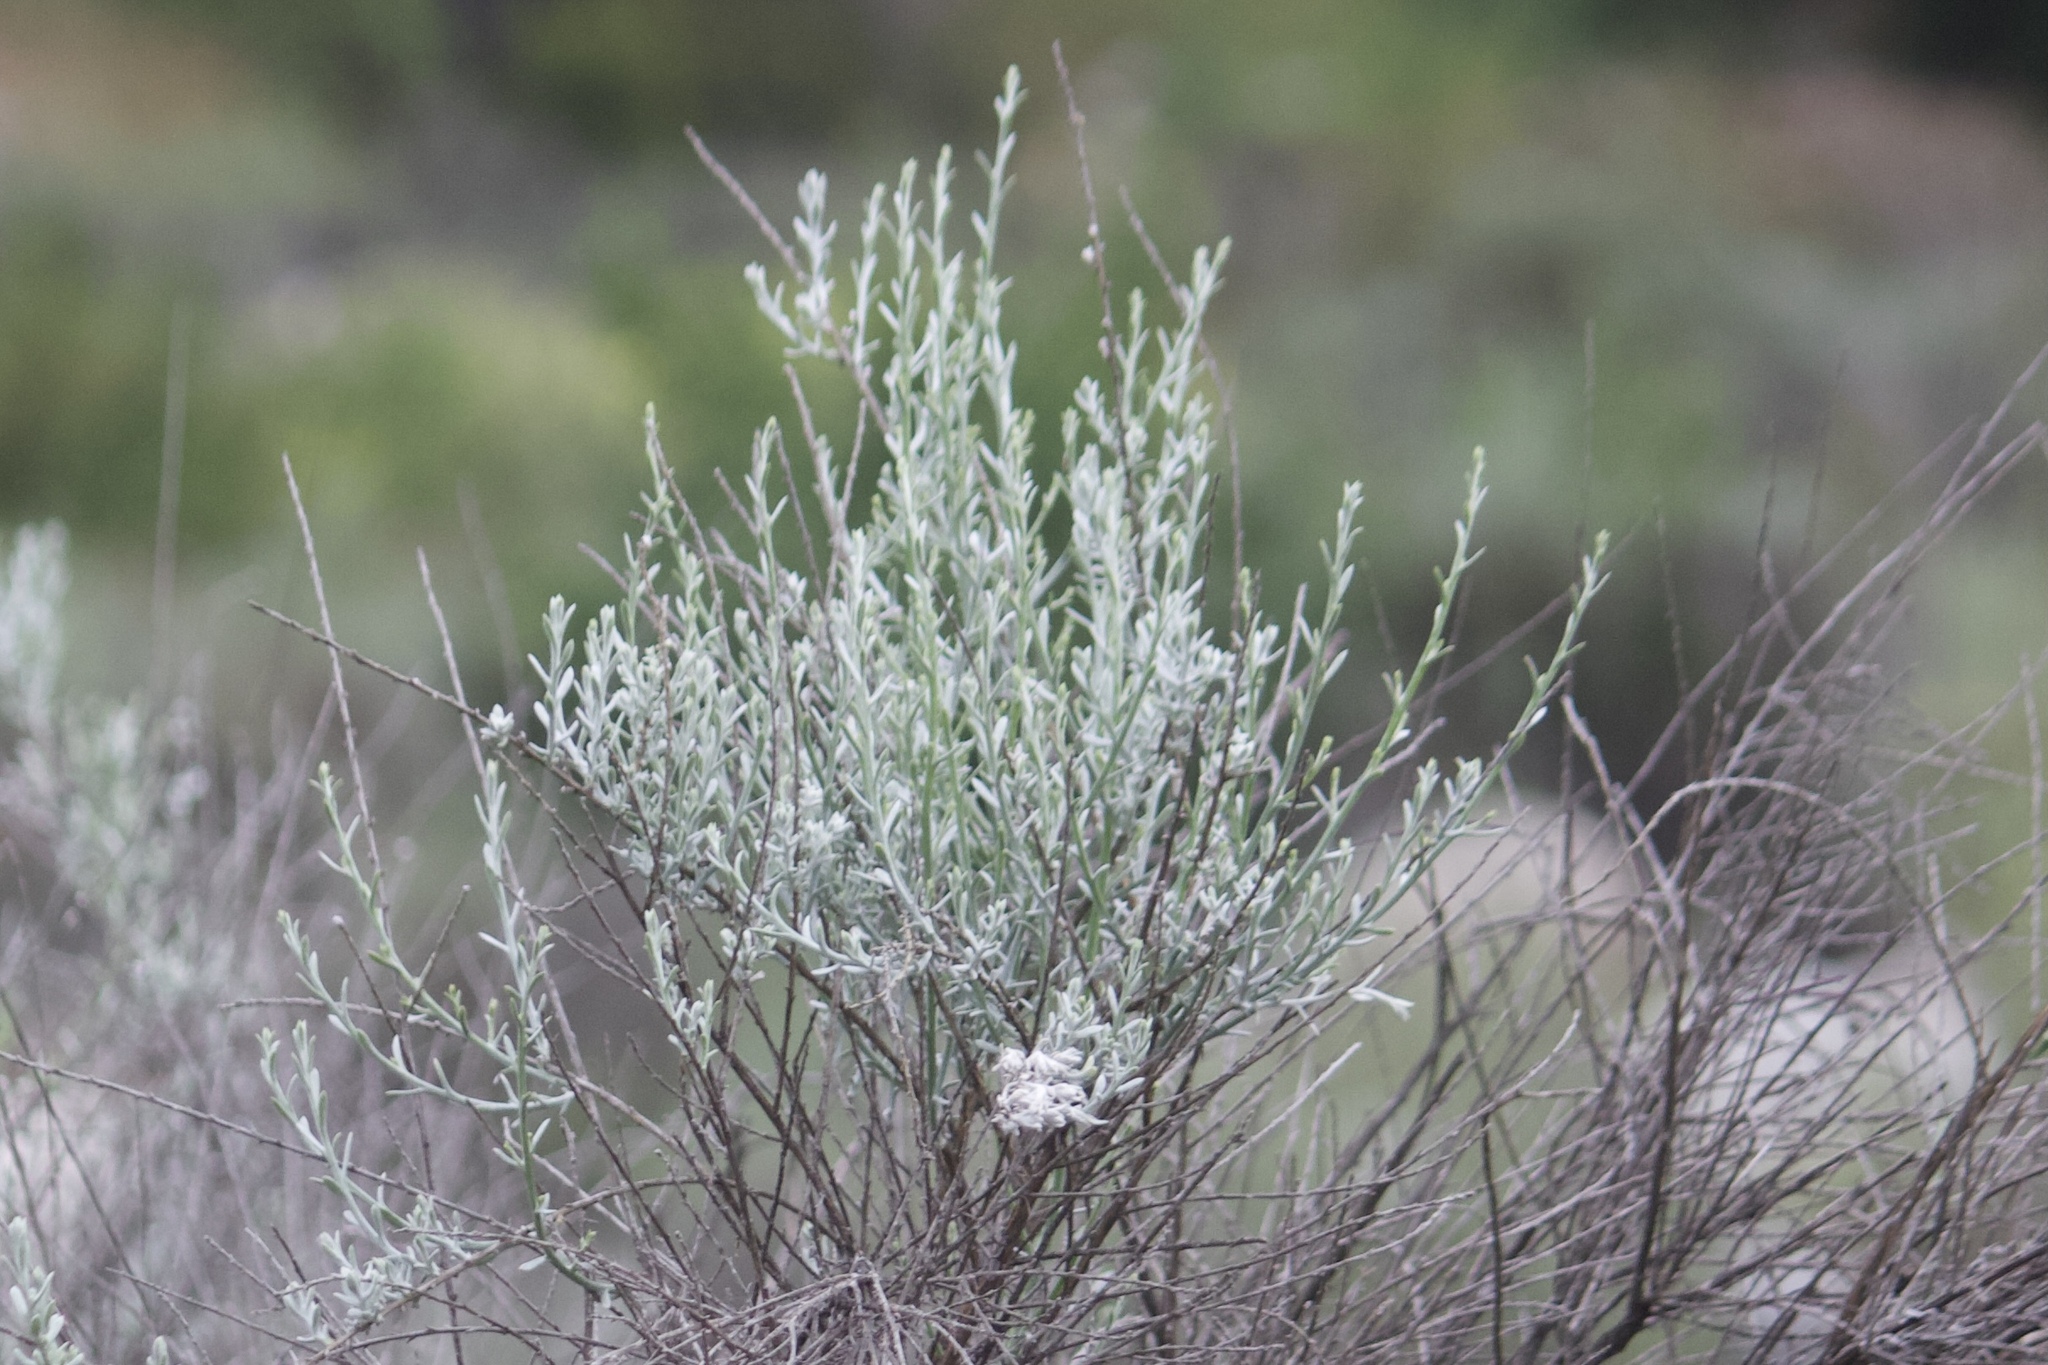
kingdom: Plantae
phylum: Tracheophyta
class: Magnoliopsida
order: Asterales
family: Asteraceae
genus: Lepidospartum
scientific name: Lepidospartum squamatum
